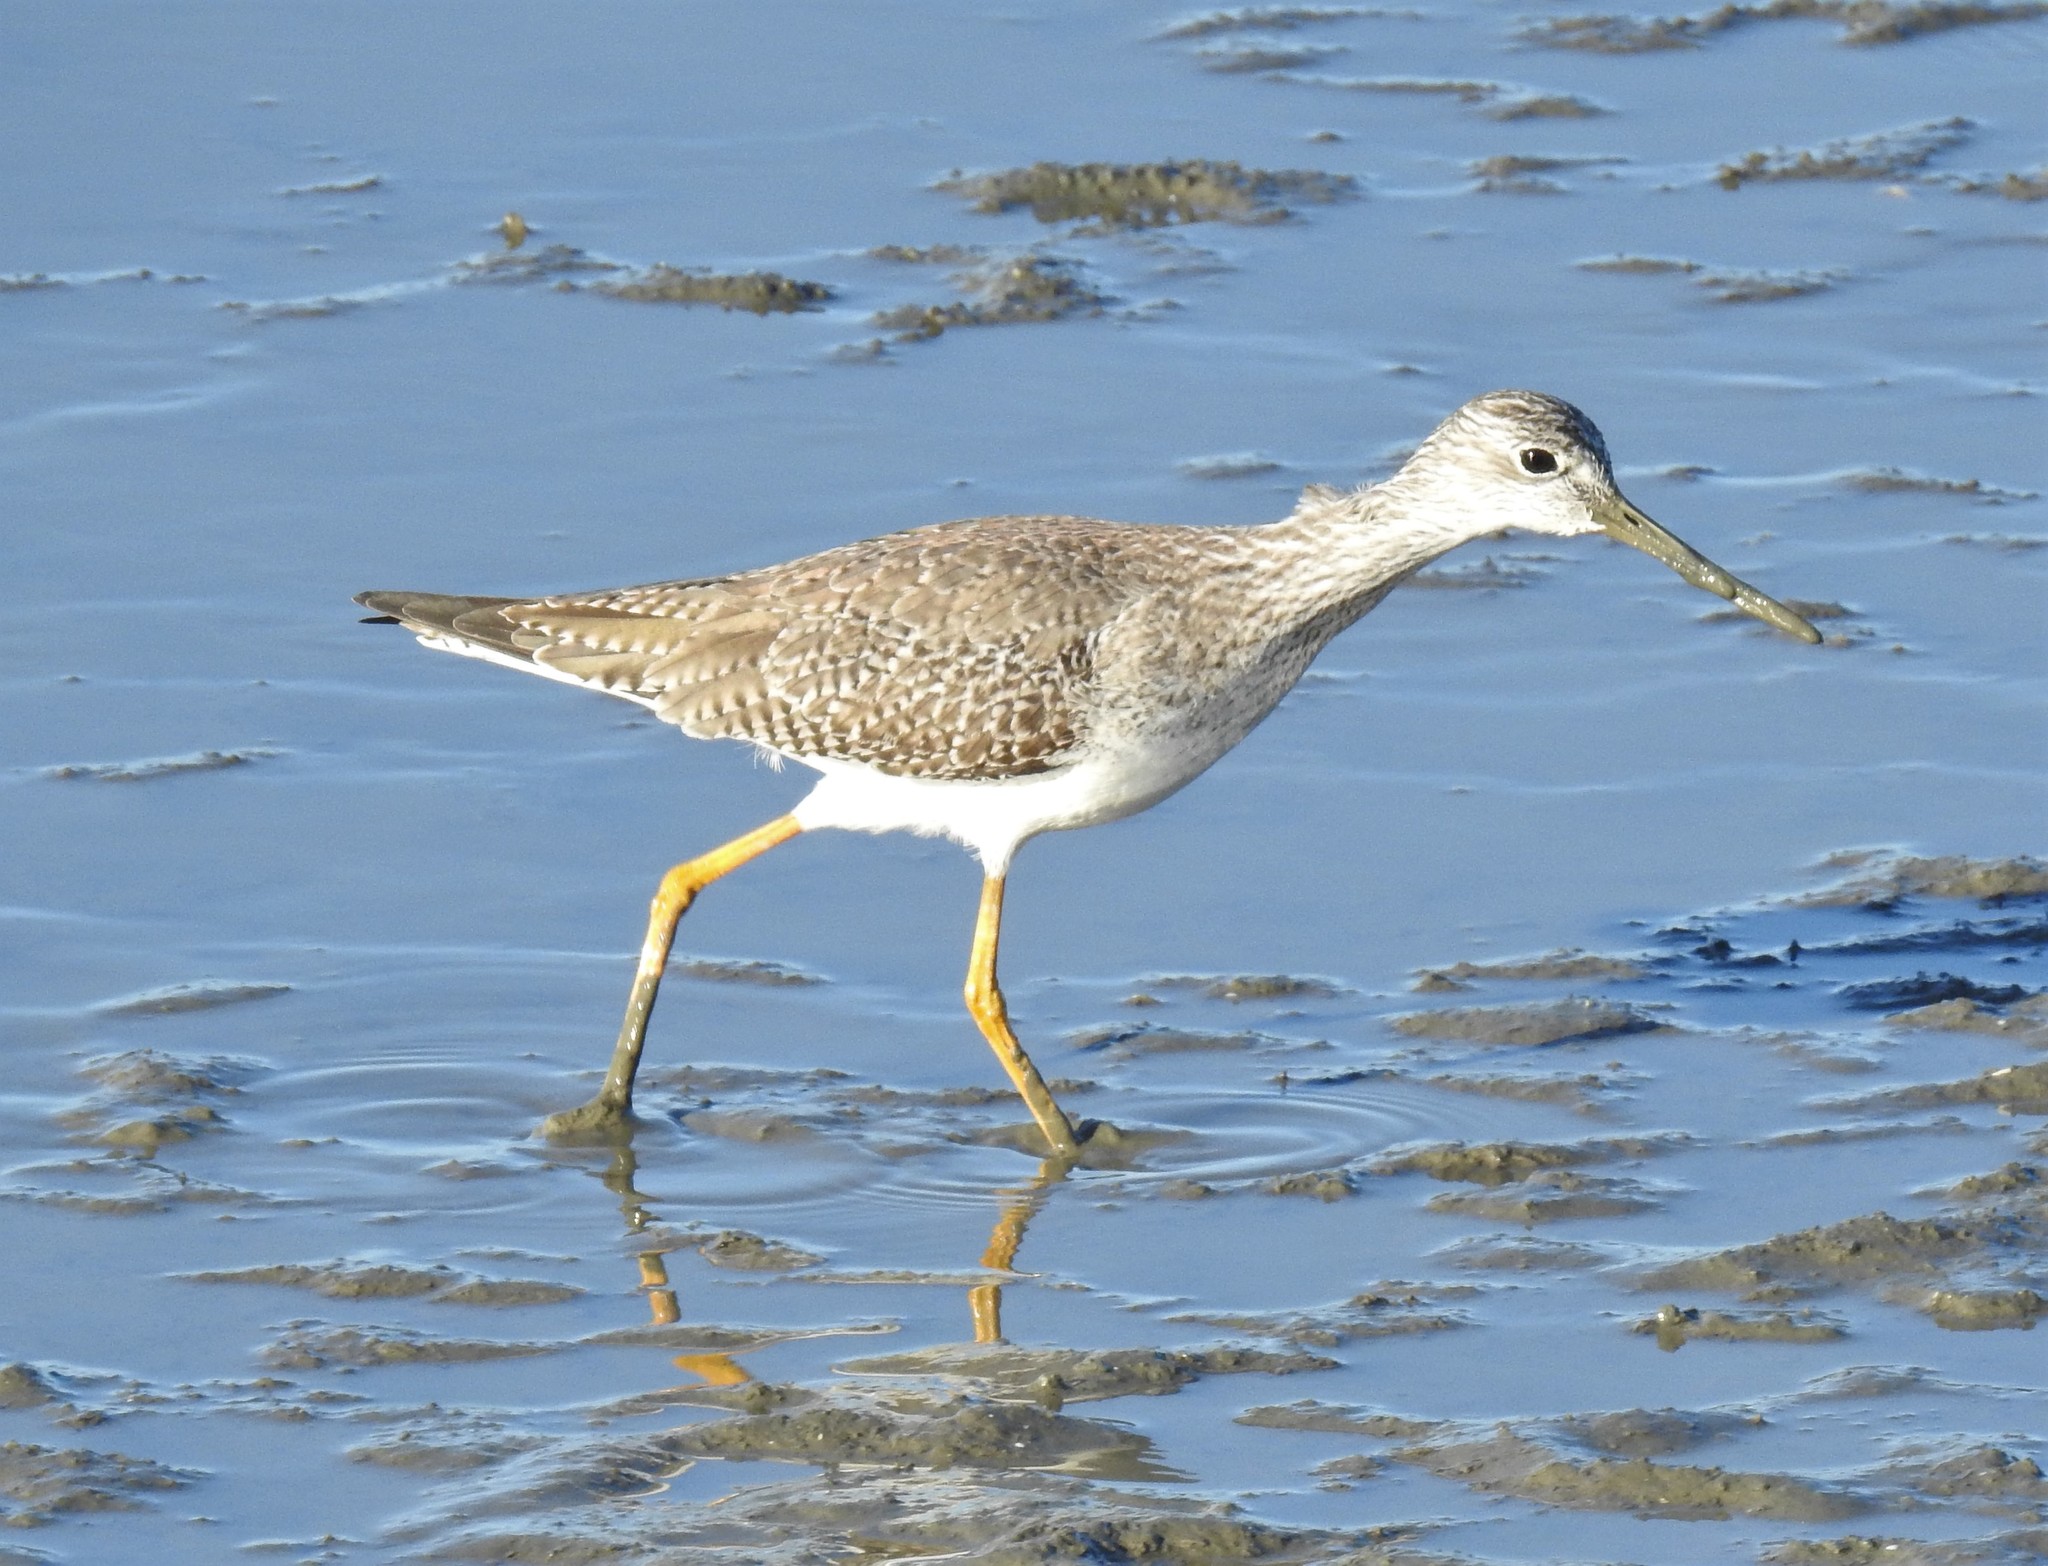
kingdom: Animalia
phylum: Chordata
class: Aves
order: Charadriiformes
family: Scolopacidae
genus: Tringa
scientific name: Tringa melanoleuca
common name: Greater yellowlegs
